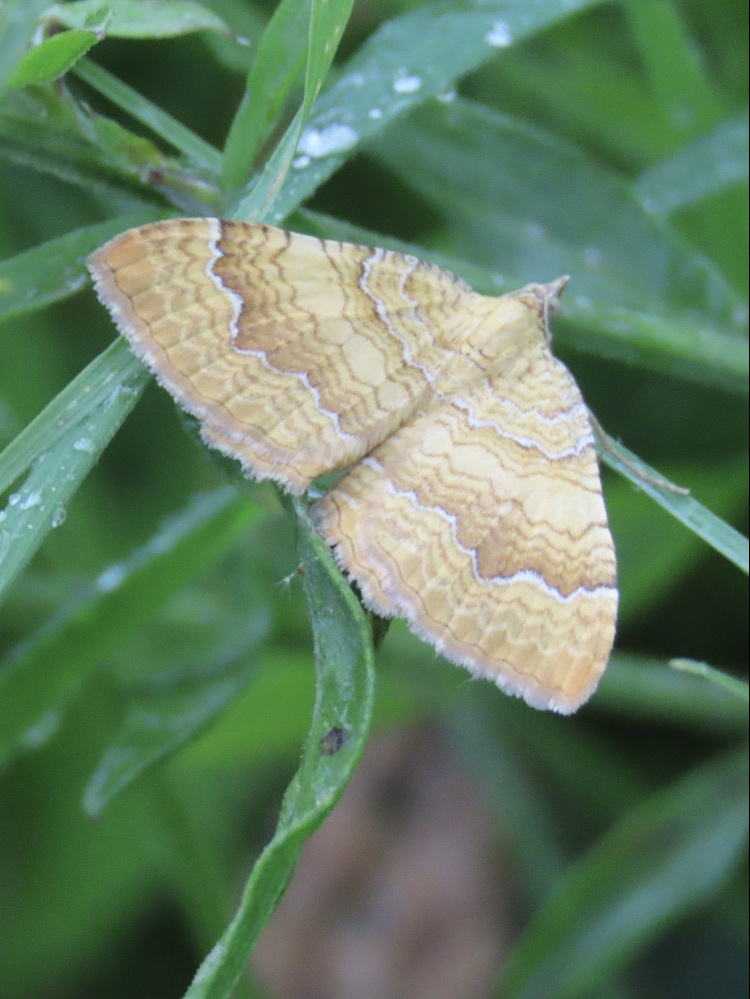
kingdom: Animalia
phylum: Arthropoda
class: Insecta
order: Lepidoptera
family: Geometridae
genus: Camptogramma
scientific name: Camptogramma bilineata
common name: Yellow shell
